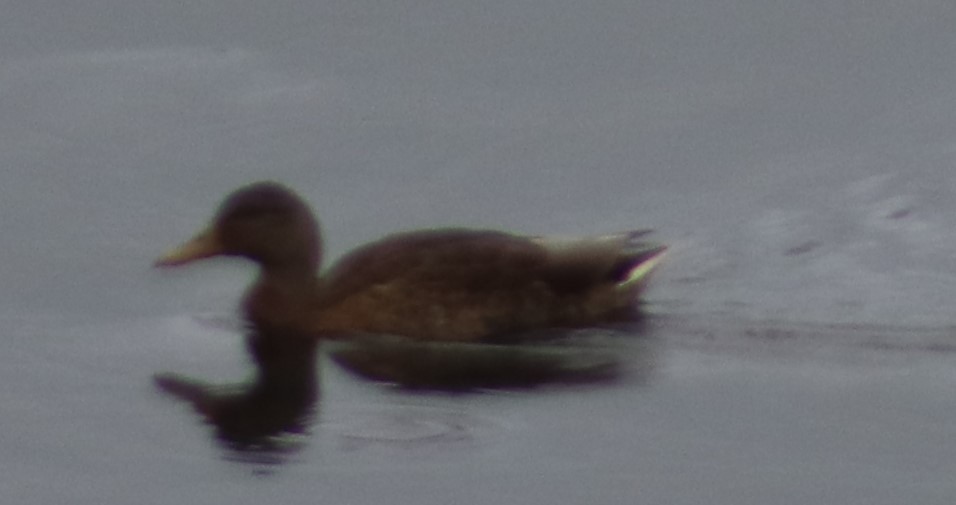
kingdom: Animalia
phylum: Chordata
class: Aves
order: Anseriformes
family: Anatidae
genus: Anas
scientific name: Anas platyrhynchos
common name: Mallard
